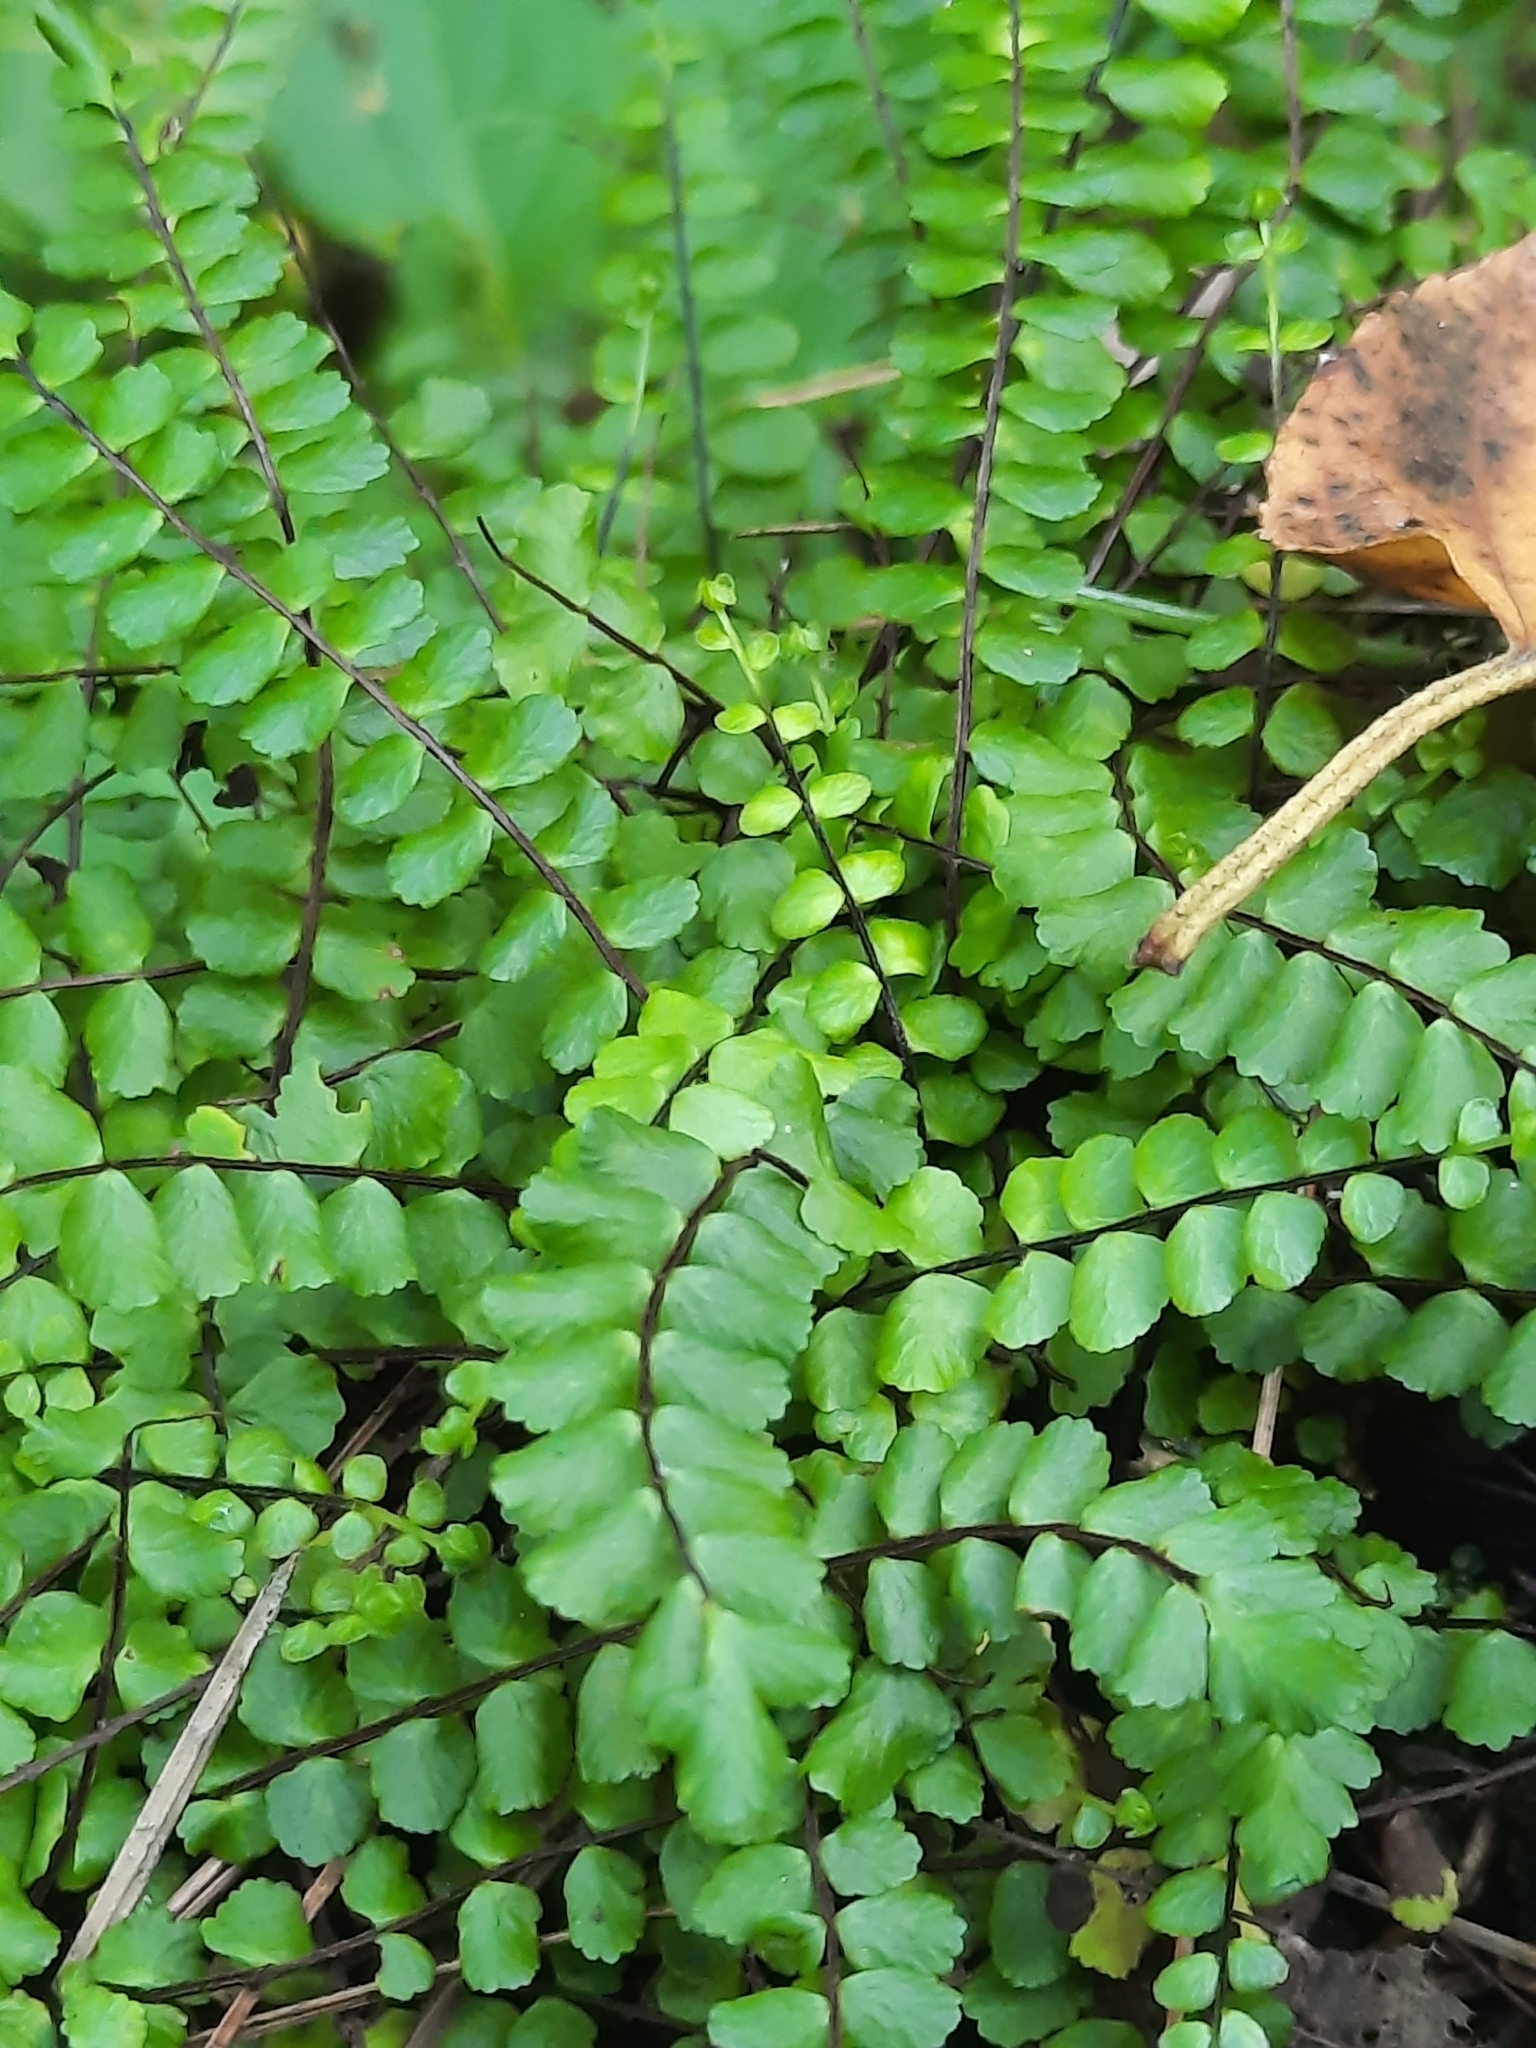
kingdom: Plantae
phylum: Tracheophyta
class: Polypodiopsida
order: Polypodiales
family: Aspleniaceae
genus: Asplenium
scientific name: Asplenium trichomanes
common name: Maidenhair spleenwort
